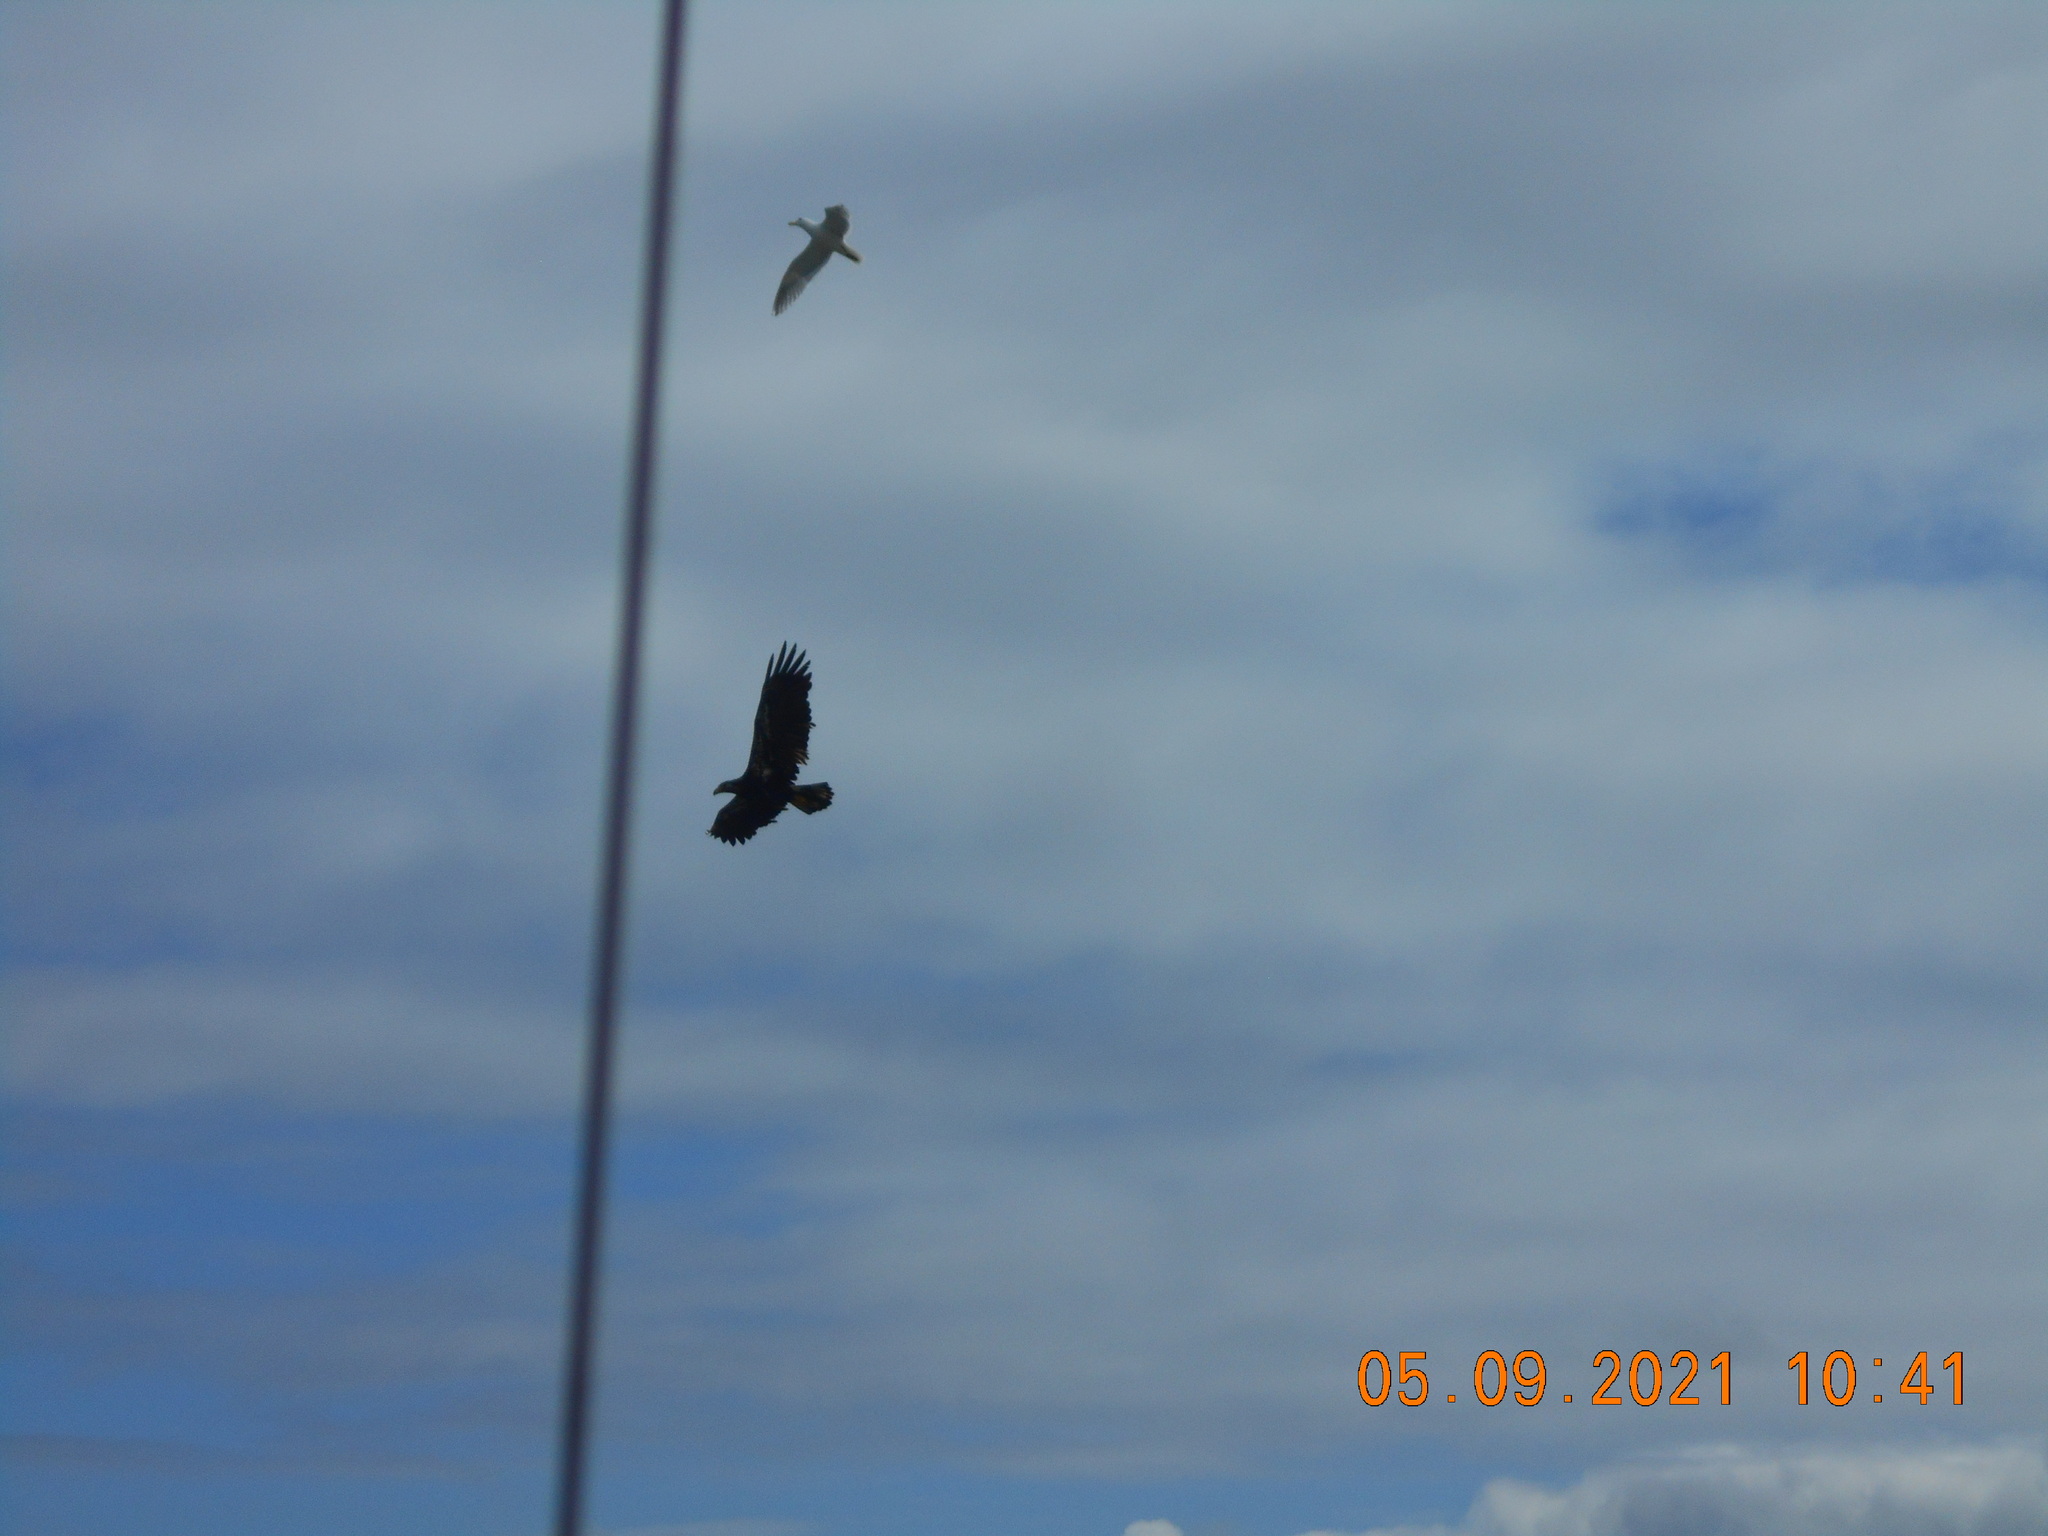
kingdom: Animalia
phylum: Chordata
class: Aves
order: Accipitriformes
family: Accipitridae
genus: Haliaeetus
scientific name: Haliaeetus leucocephalus
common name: Bald eagle
